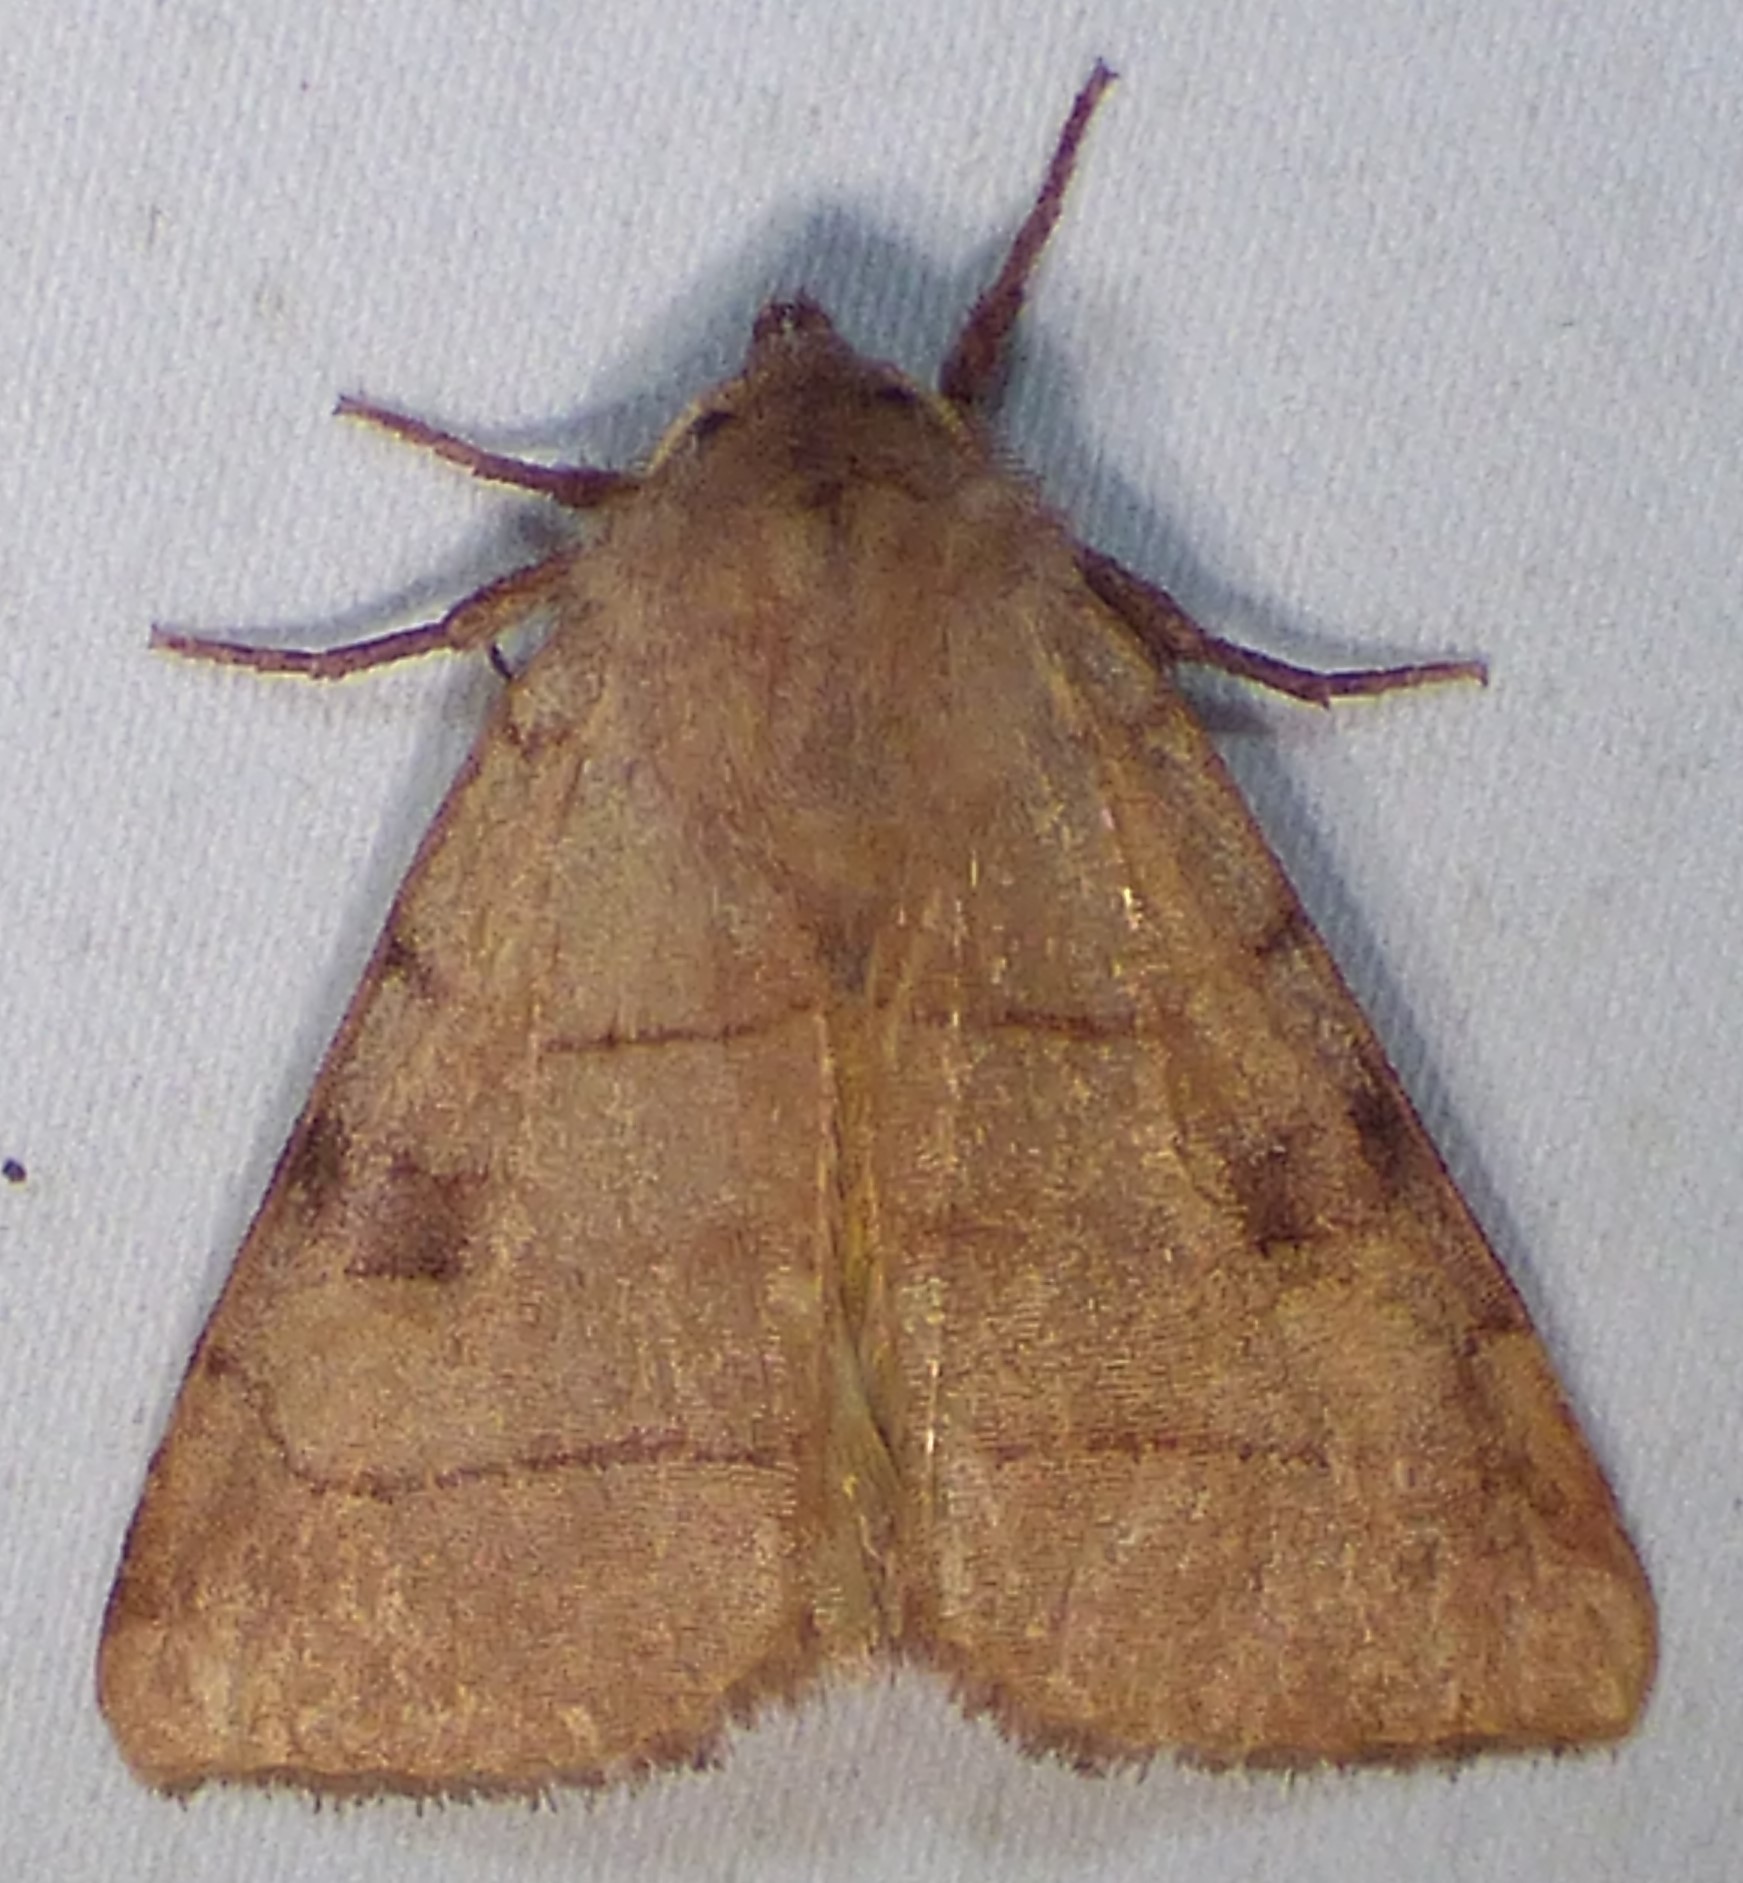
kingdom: Animalia
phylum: Arthropoda
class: Insecta
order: Lepidoptera
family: Noctuidae
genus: Choephora
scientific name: Choephora fungorum
